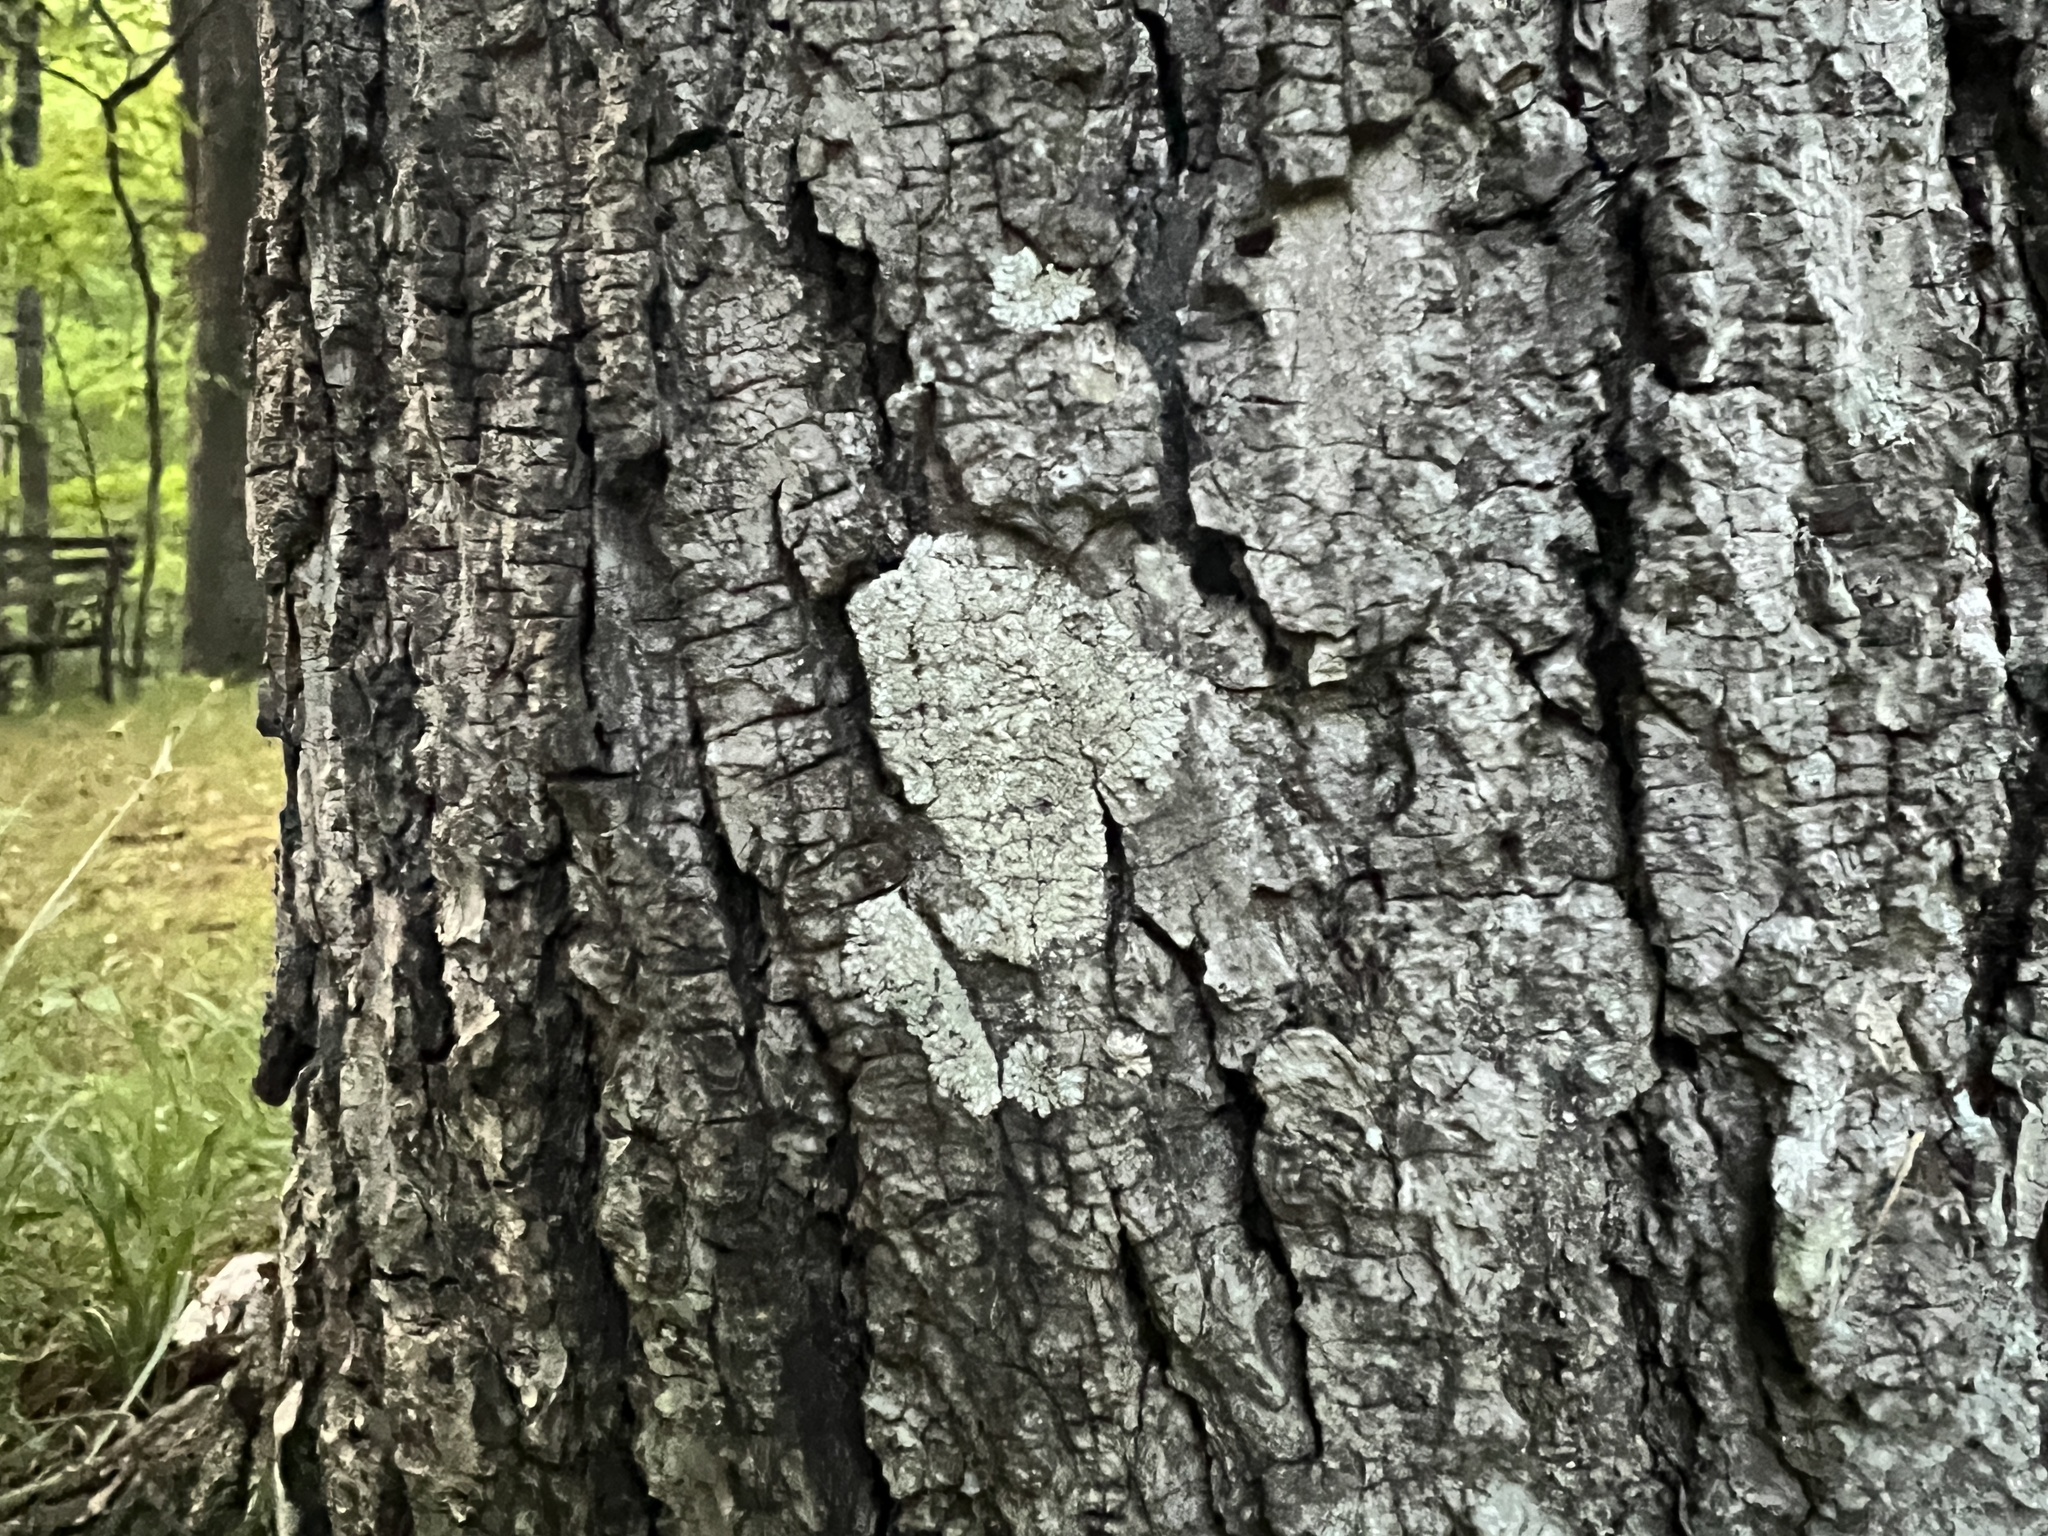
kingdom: Fungi
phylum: Ascomycota
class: Lecanoromycetes
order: Caliciales
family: Caliciaceae
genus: Pyxine
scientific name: Pyxine subcinerea
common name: Mustard lichen
